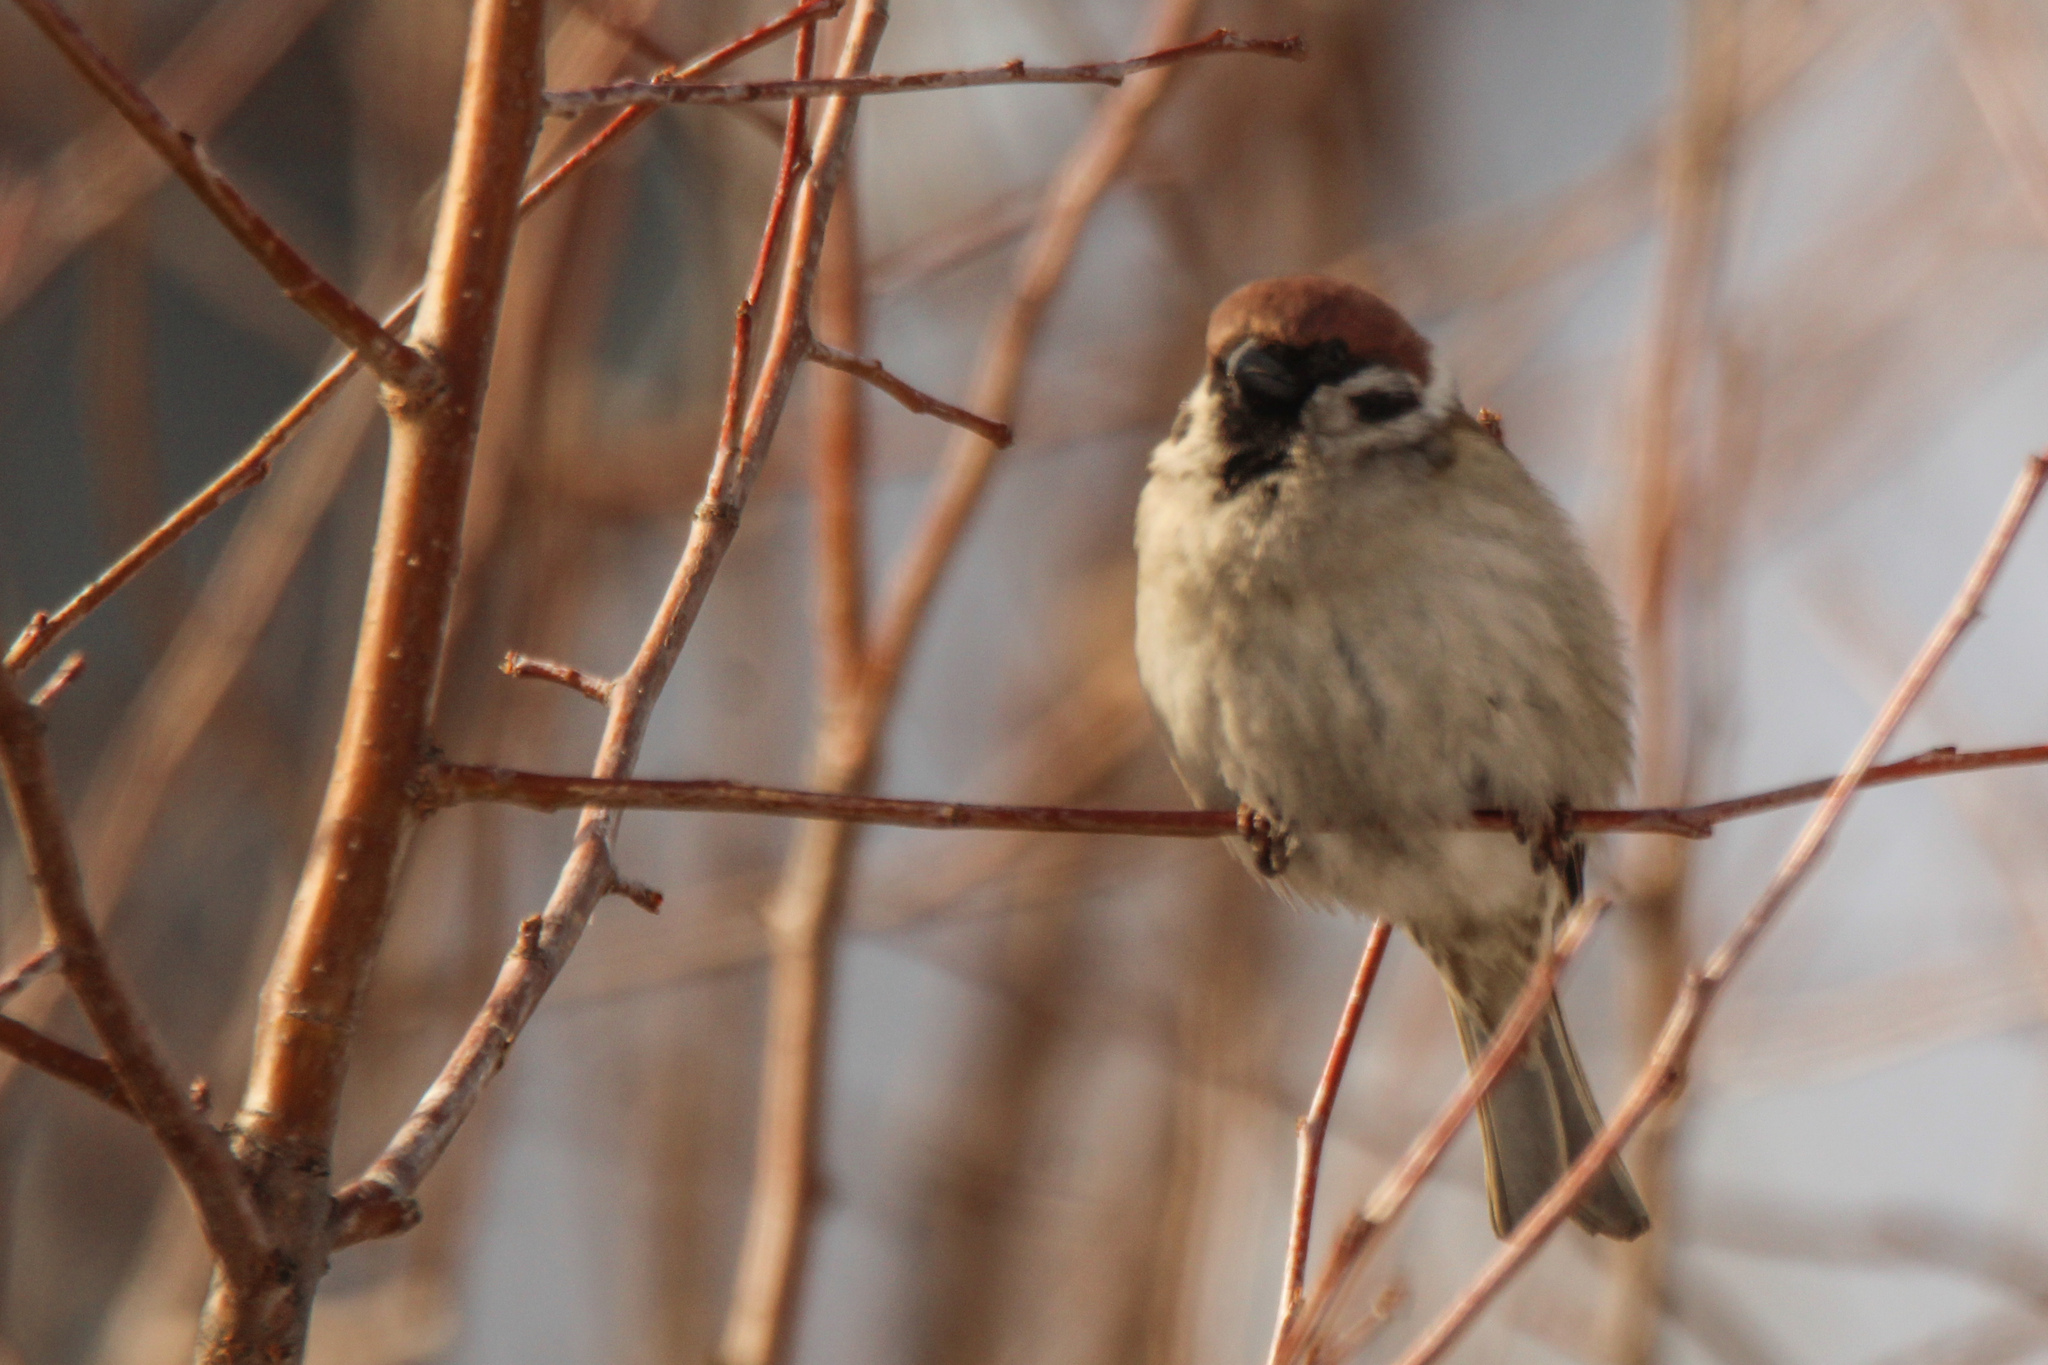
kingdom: Animalia
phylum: Chordata
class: Aves
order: Passeriformes
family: Passeridae
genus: Passer
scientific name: Passer montanus
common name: Eurasian tree sparrow
